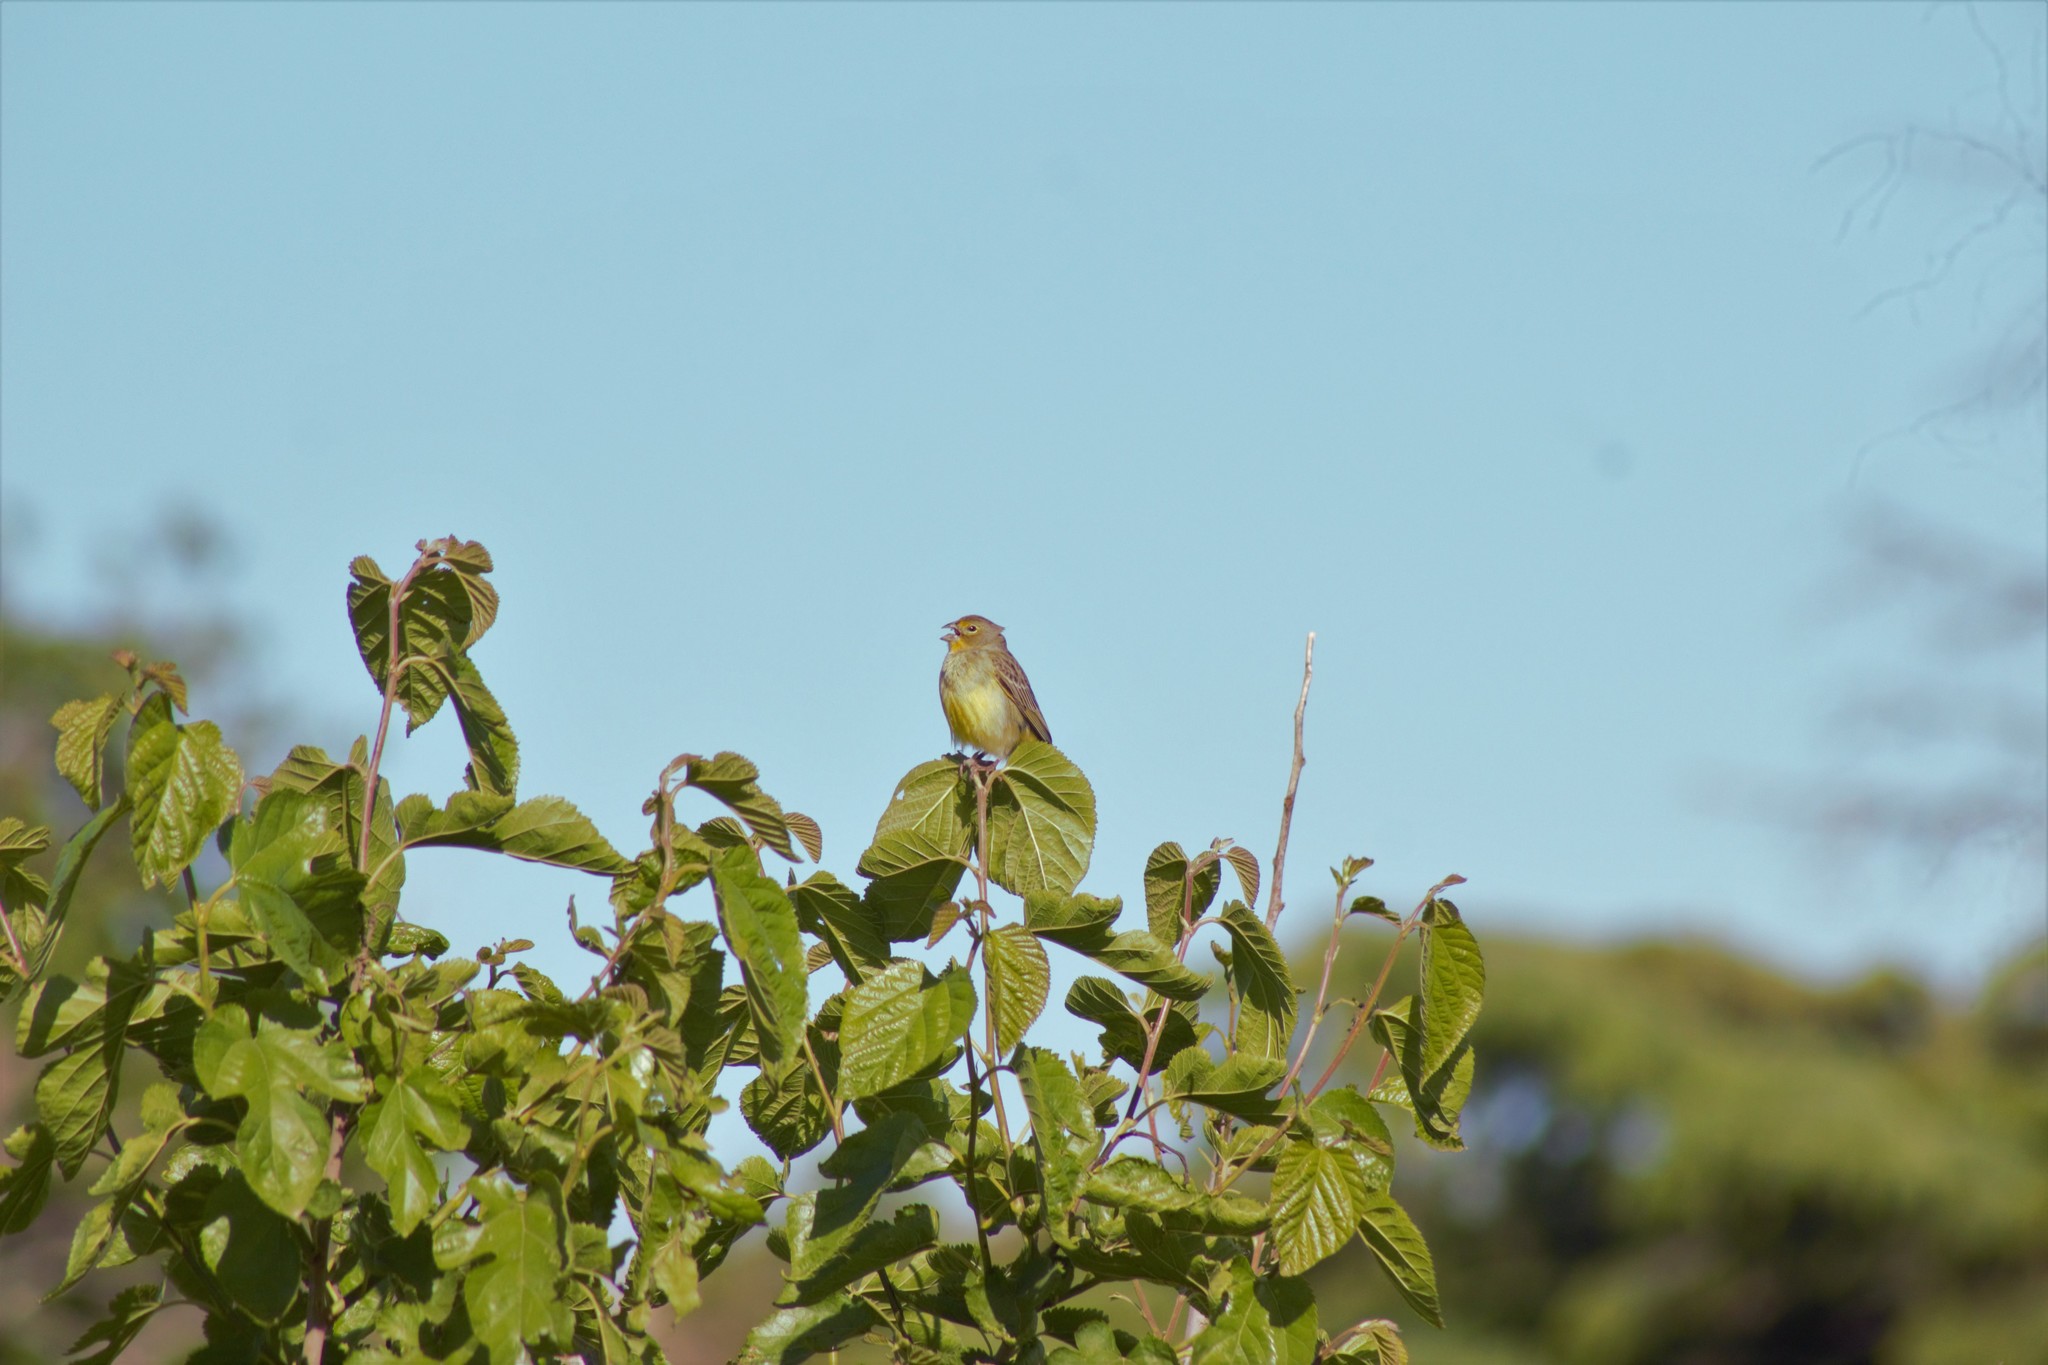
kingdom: Animalia
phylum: Chordata
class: Aves
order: Passeriformes
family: Thraupidae
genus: Sicalis
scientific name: Sicalis luteola
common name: Grassland yellow-finch
